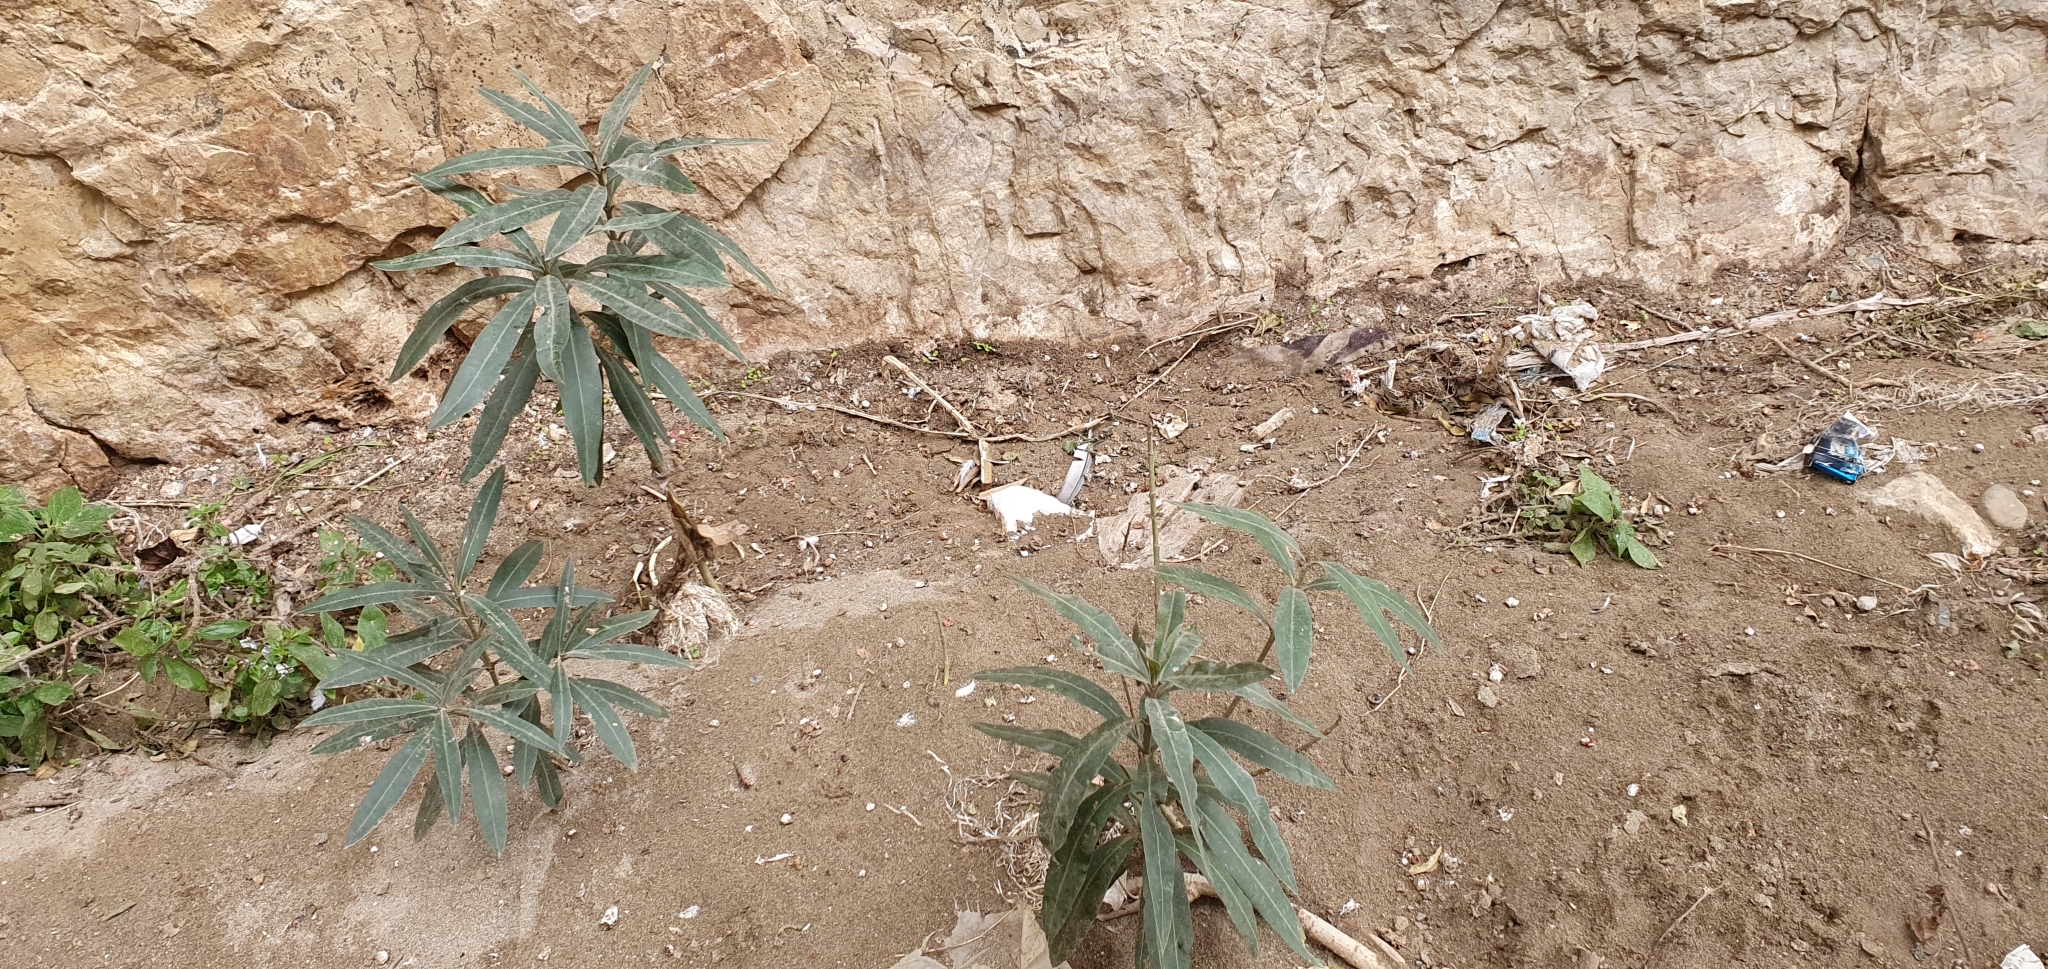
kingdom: Plantae
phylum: Tracheophyta
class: Magnoliopsida
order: Gentianales
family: Apocynaceae
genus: Nerium
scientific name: Nerium oleander
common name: Oleander
